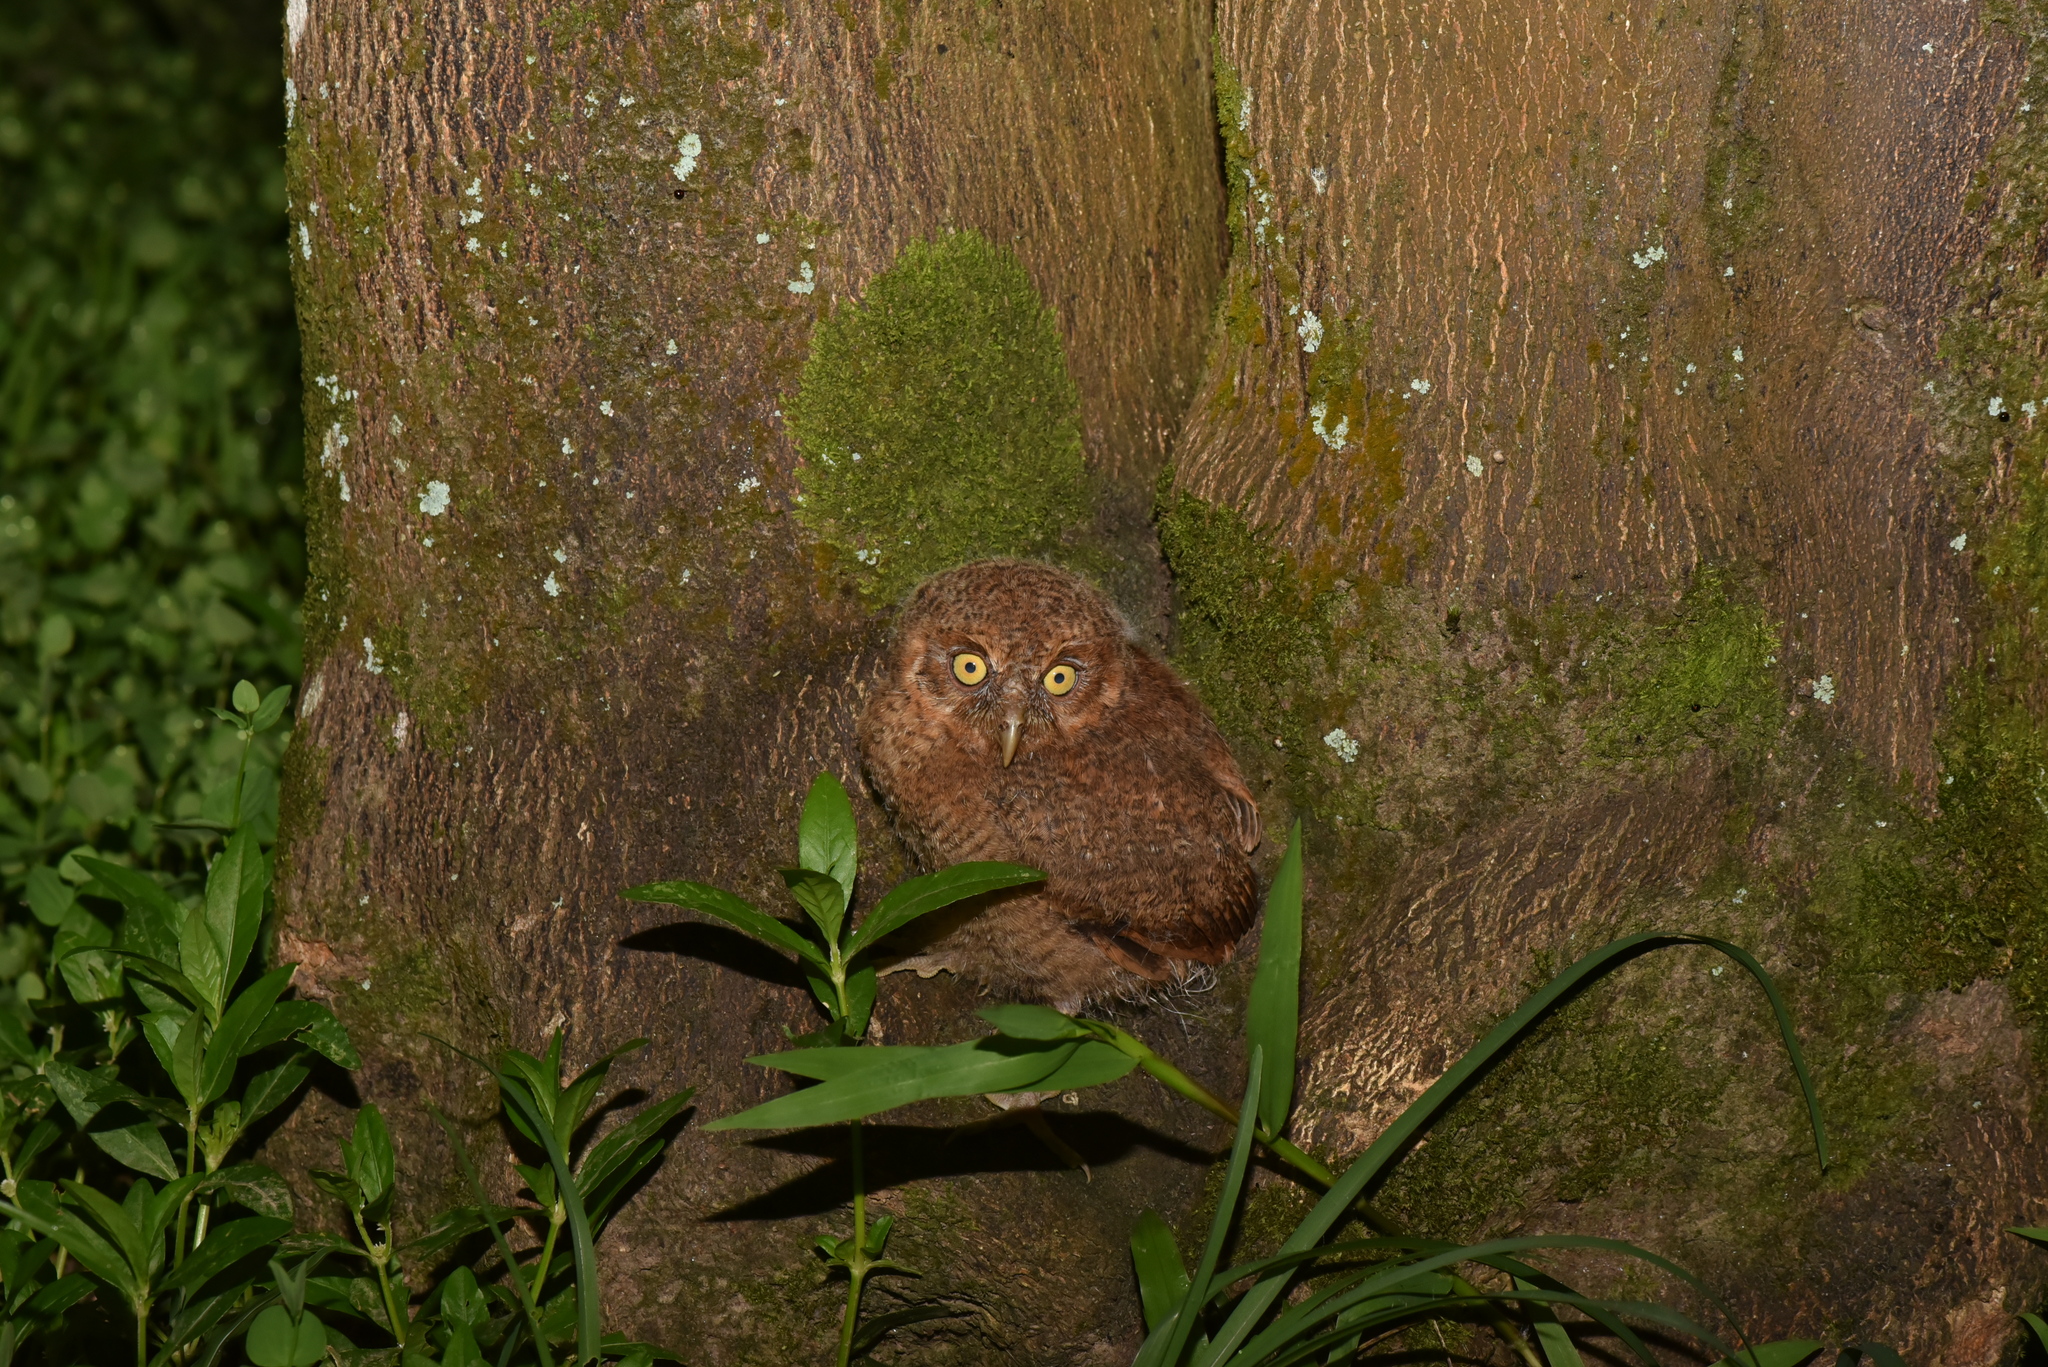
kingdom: Animalia
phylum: Chordata
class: Aves
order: Strigiformes
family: Strigidae
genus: Otus
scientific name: Otus spilocephalus
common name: Mountain scops owl
